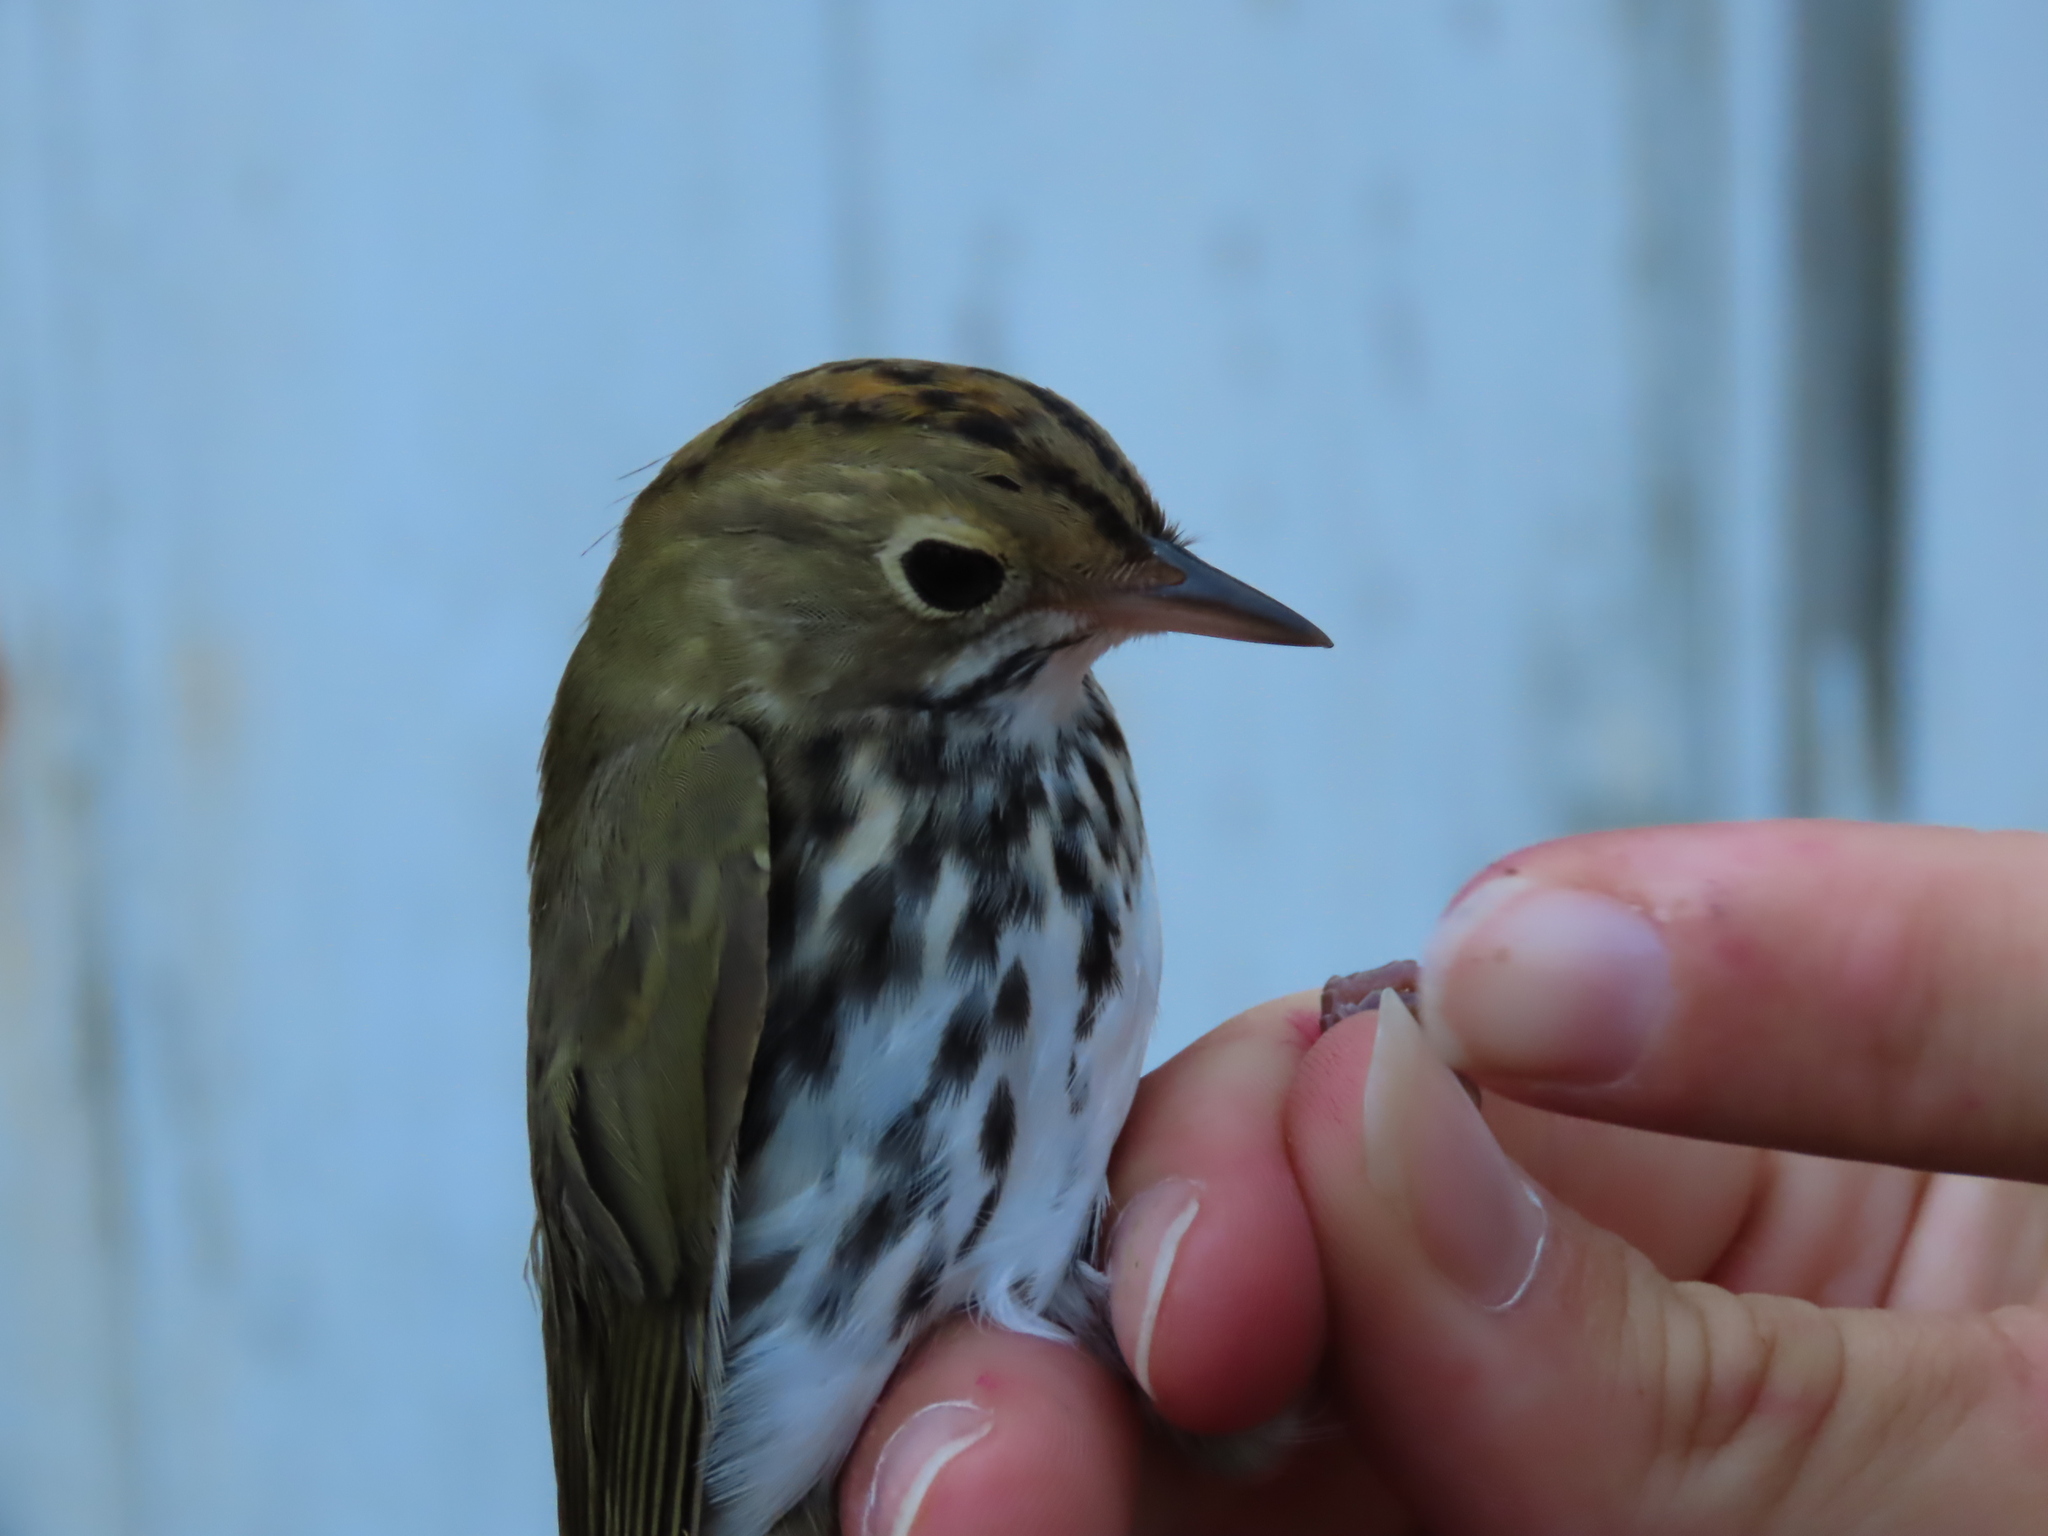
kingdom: Animalia
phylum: Chordata
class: Aves
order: Passeriformes
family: Parulidae
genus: Seiurus
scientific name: Seiurus aurocapilla
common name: Ovenbird
